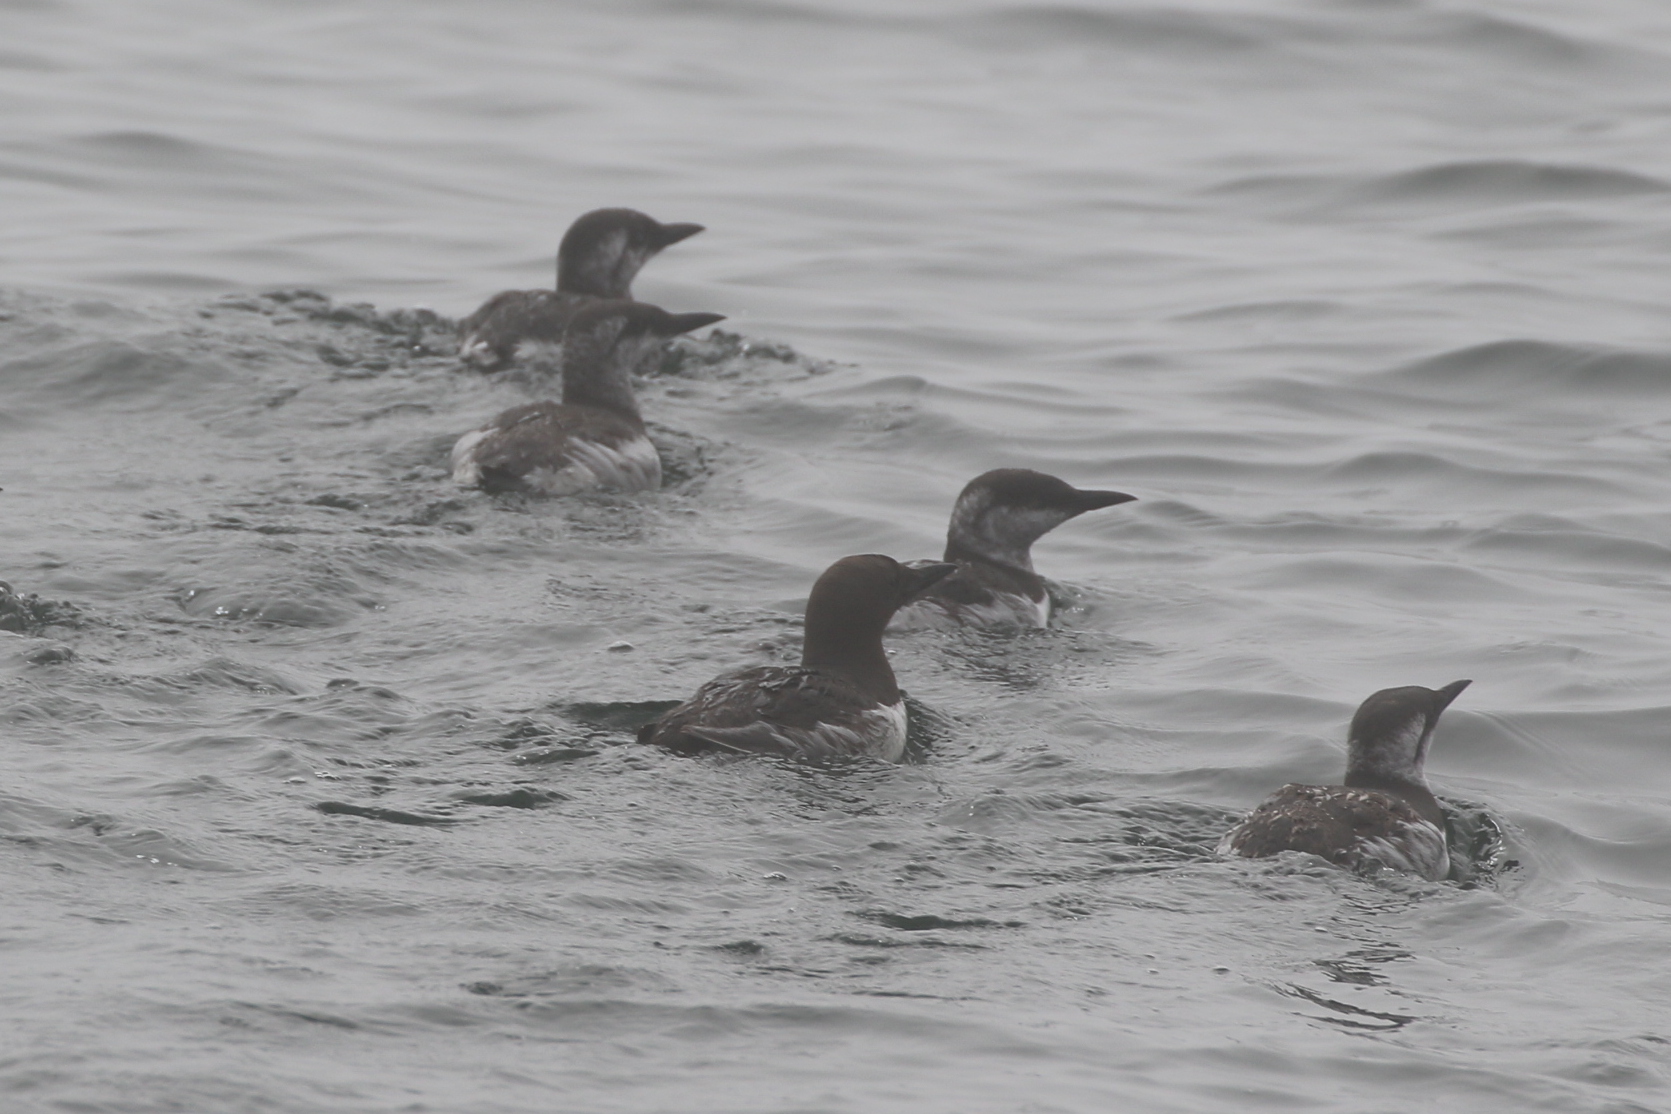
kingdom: Animalia
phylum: Chordata
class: Aves
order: Charadriiformes
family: Alcidae
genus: Uria
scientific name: Uria aalge
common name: Common murre
